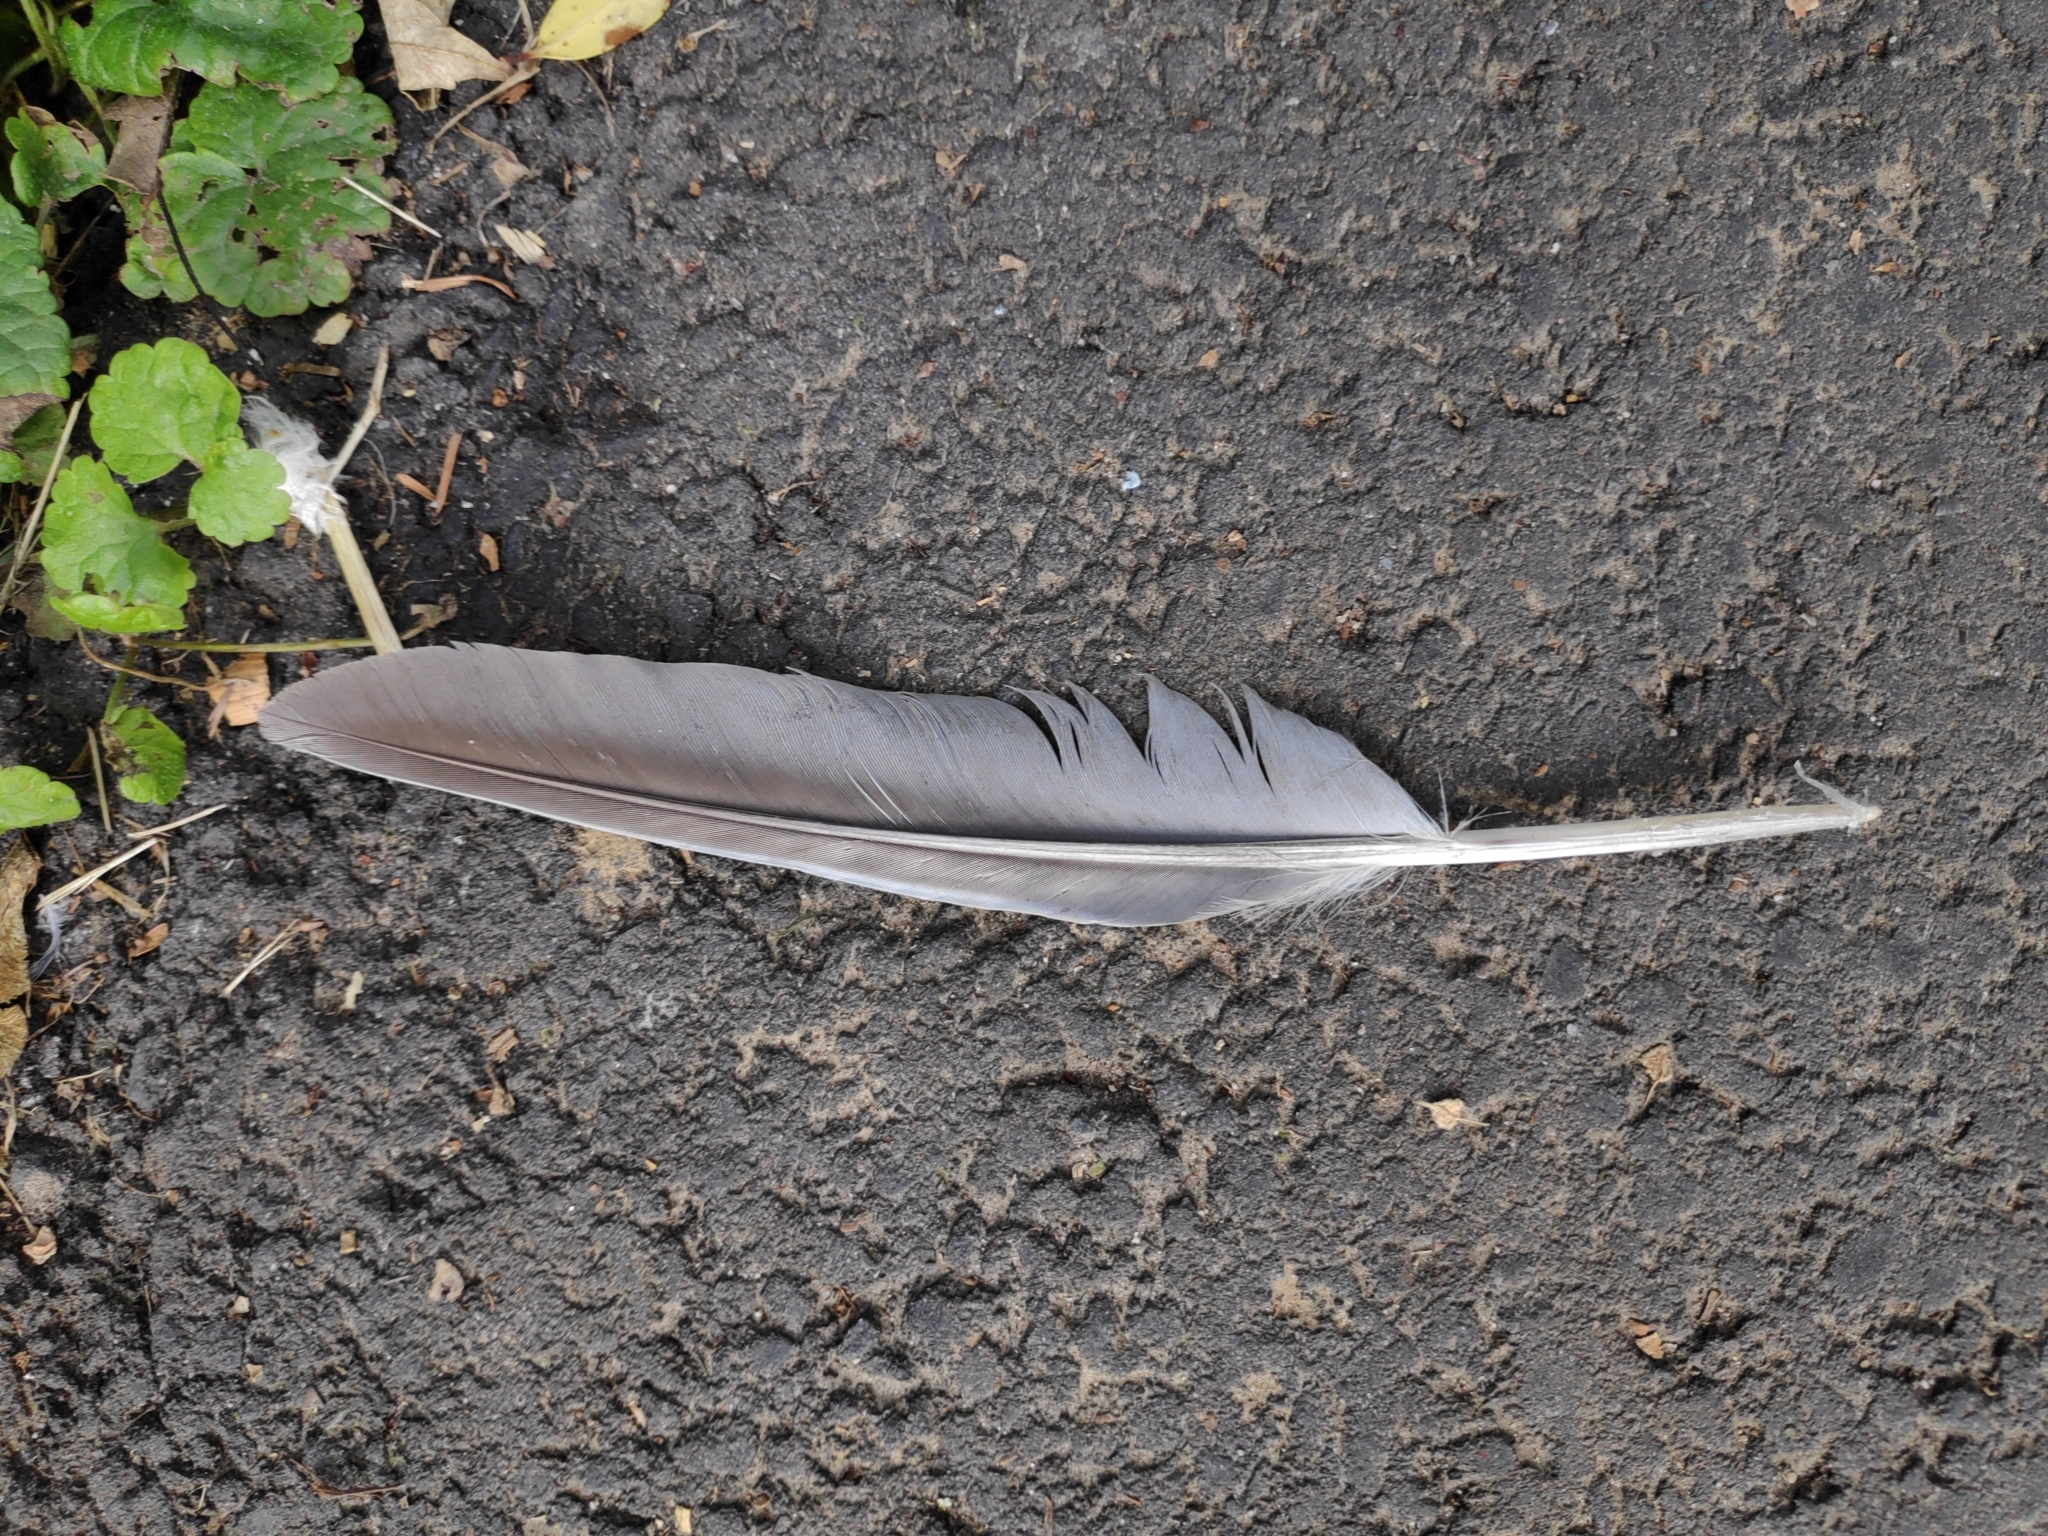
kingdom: Animalia
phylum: Chordata
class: Aves
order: Columbiformes
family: Columbidae
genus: Columba
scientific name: Columba palumbus
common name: Common wood pigeon
